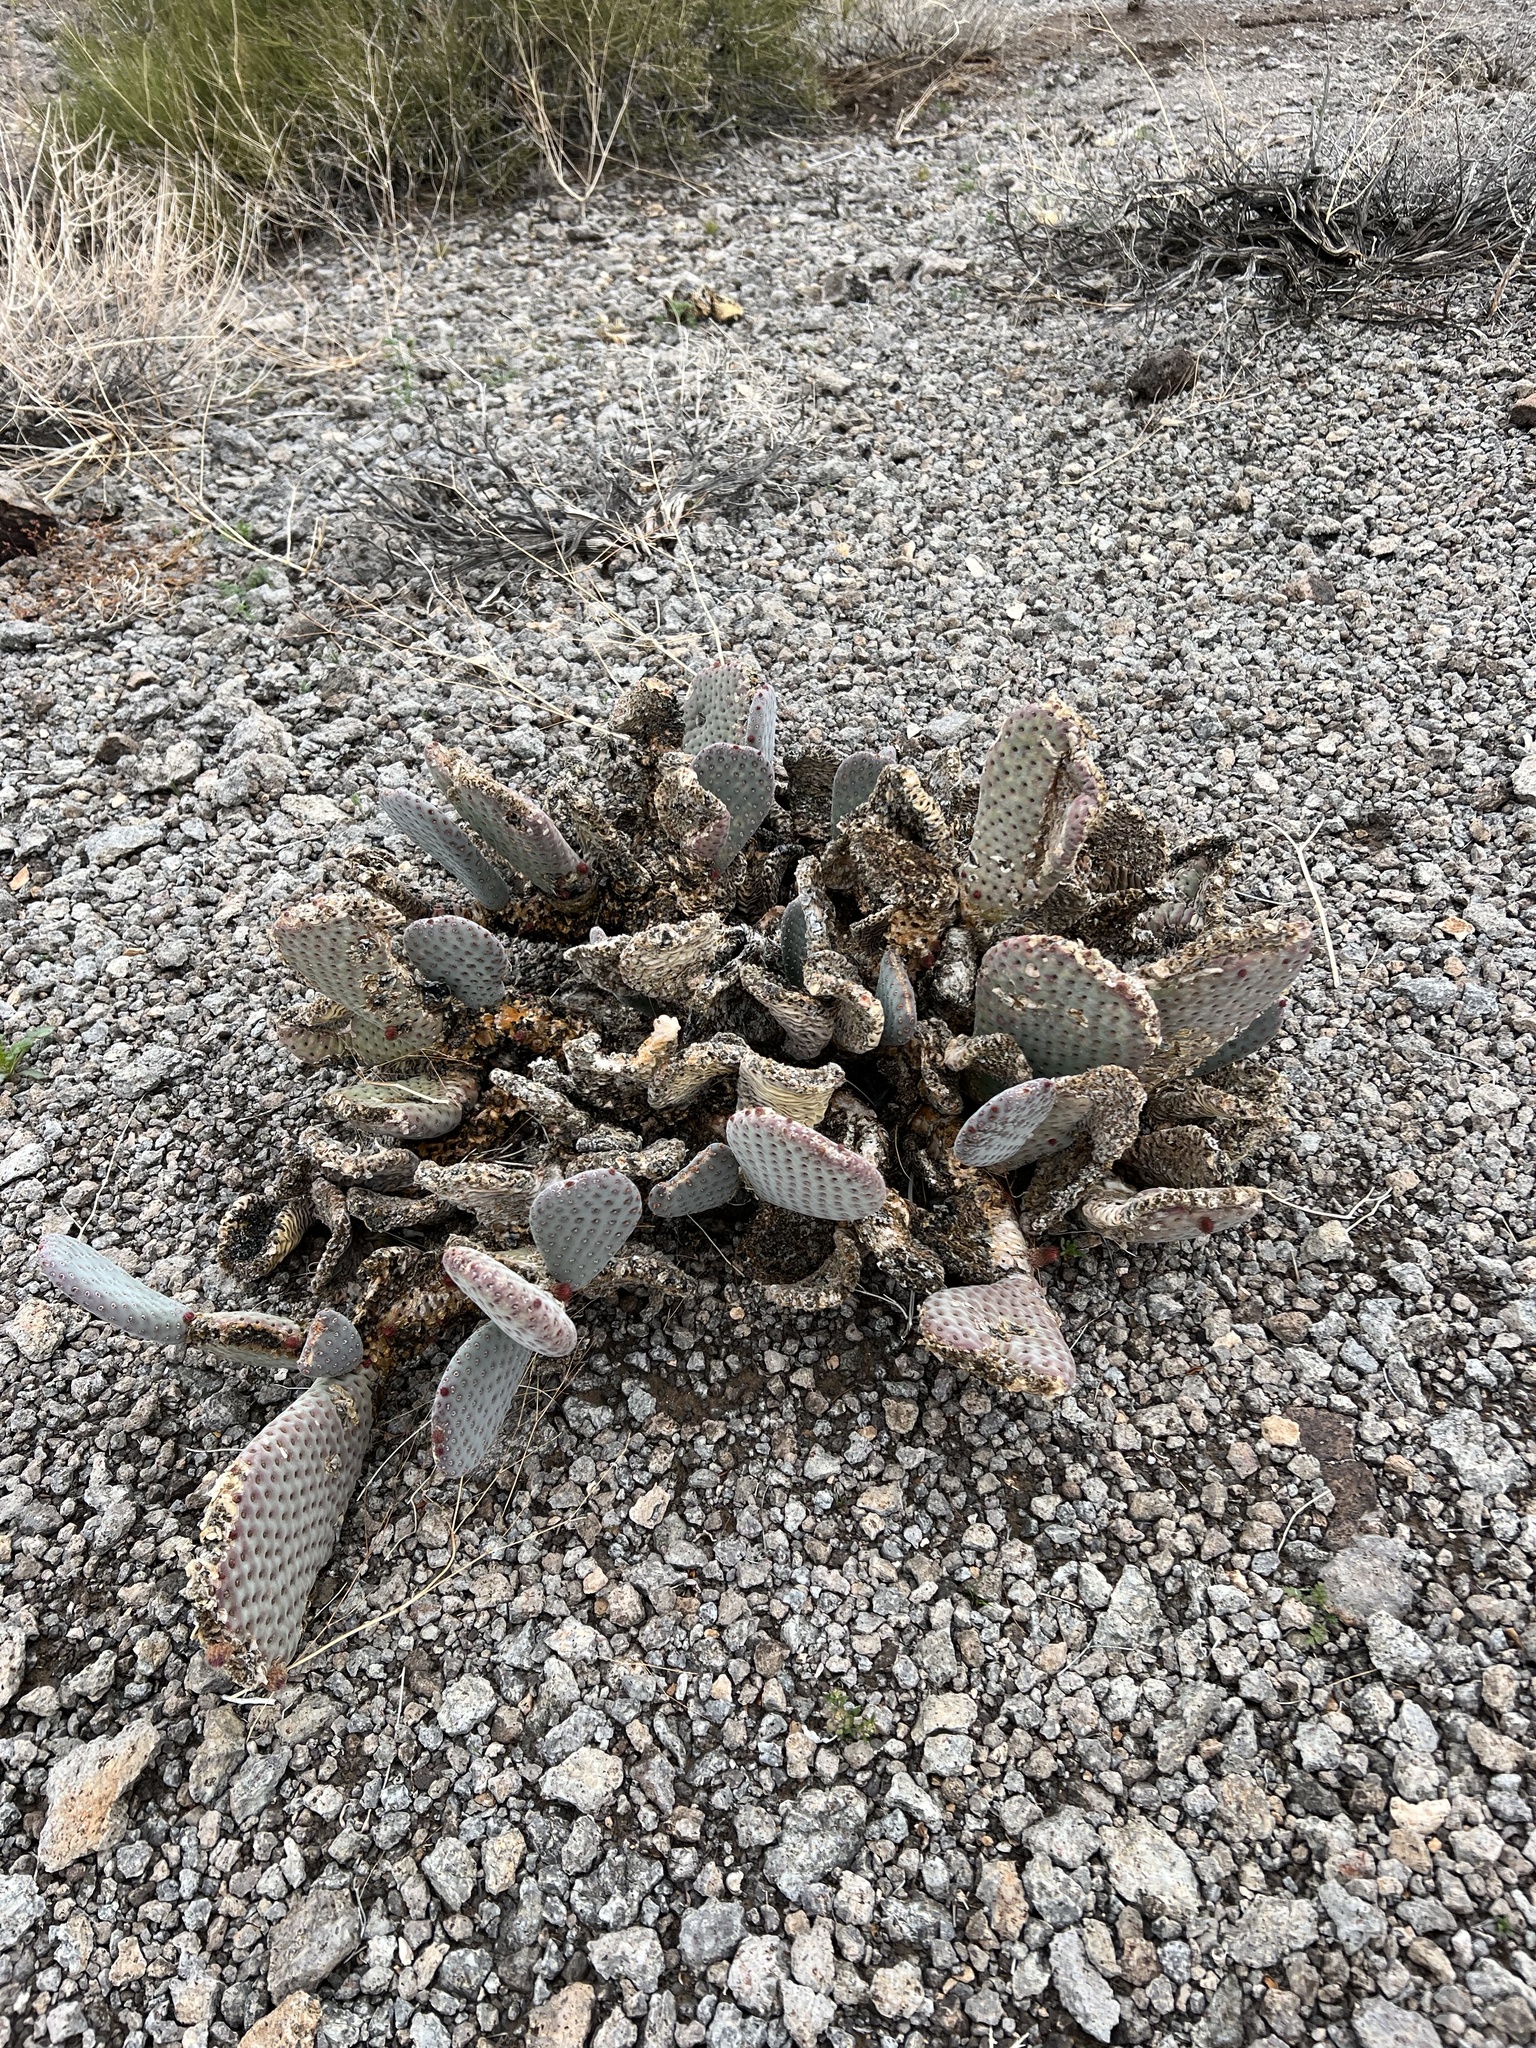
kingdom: Plantae
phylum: Tracheophyta
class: Magnoliopsida
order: Caryophyllales
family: Cactaceae
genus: Opuntia
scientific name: Opuntia basilaris
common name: Beavertail prickly-pear
